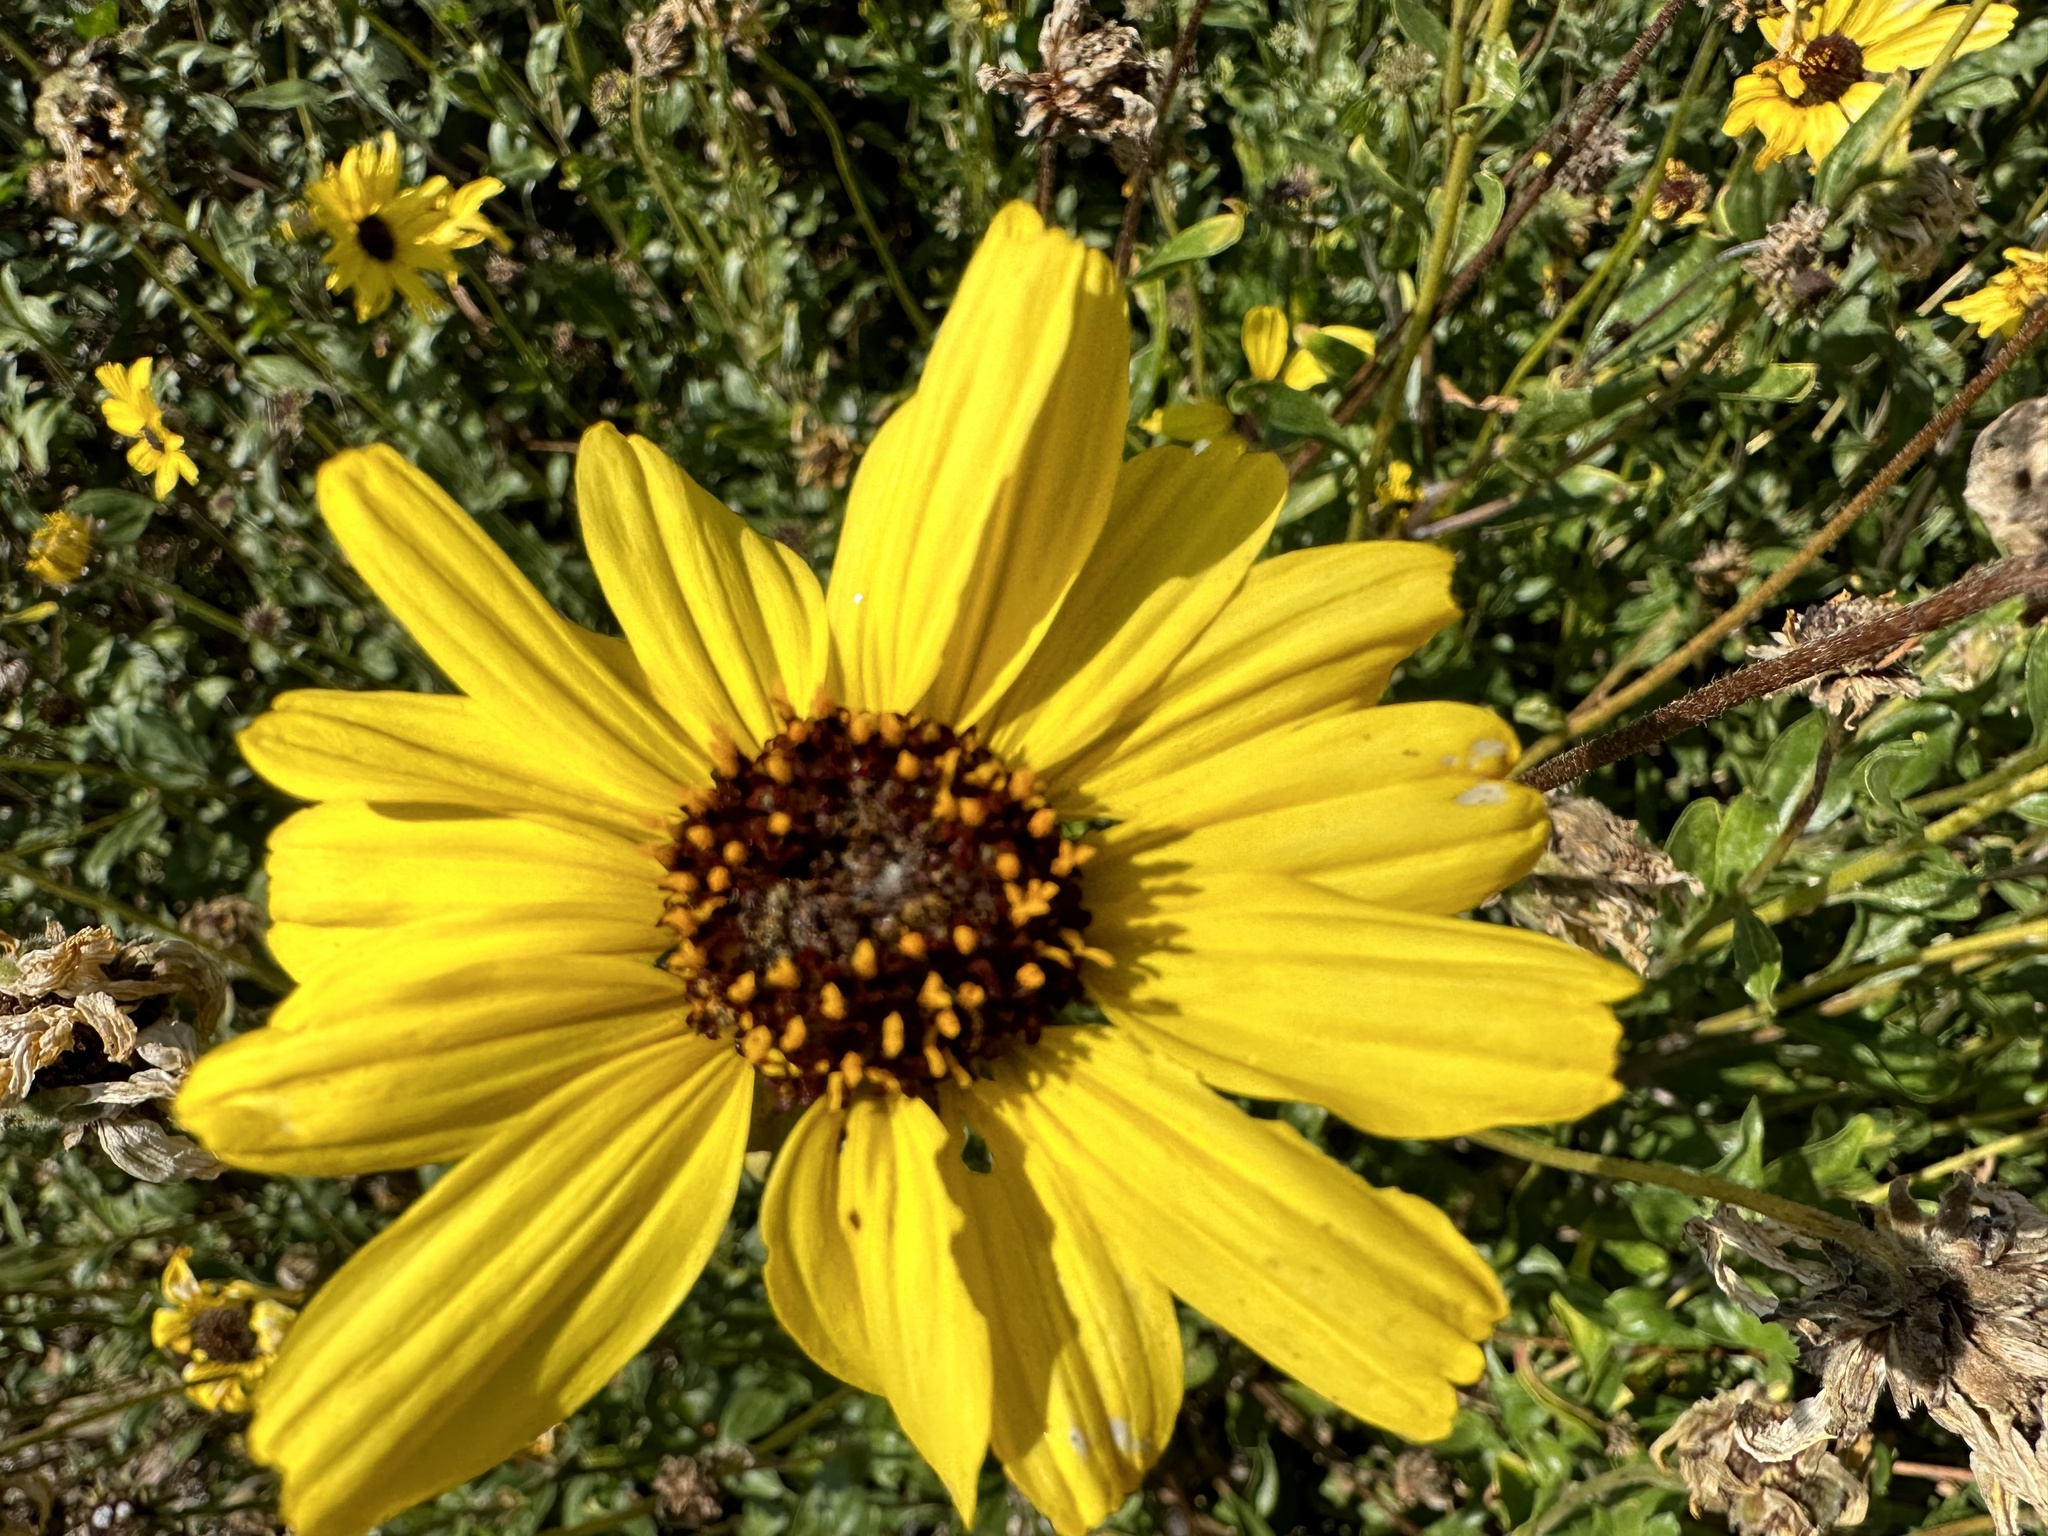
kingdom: Plantae
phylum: Tracheophyta
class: Magnoliopsida
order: Asterales
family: Asteraceae
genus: Encelia
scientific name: Encelia californica
